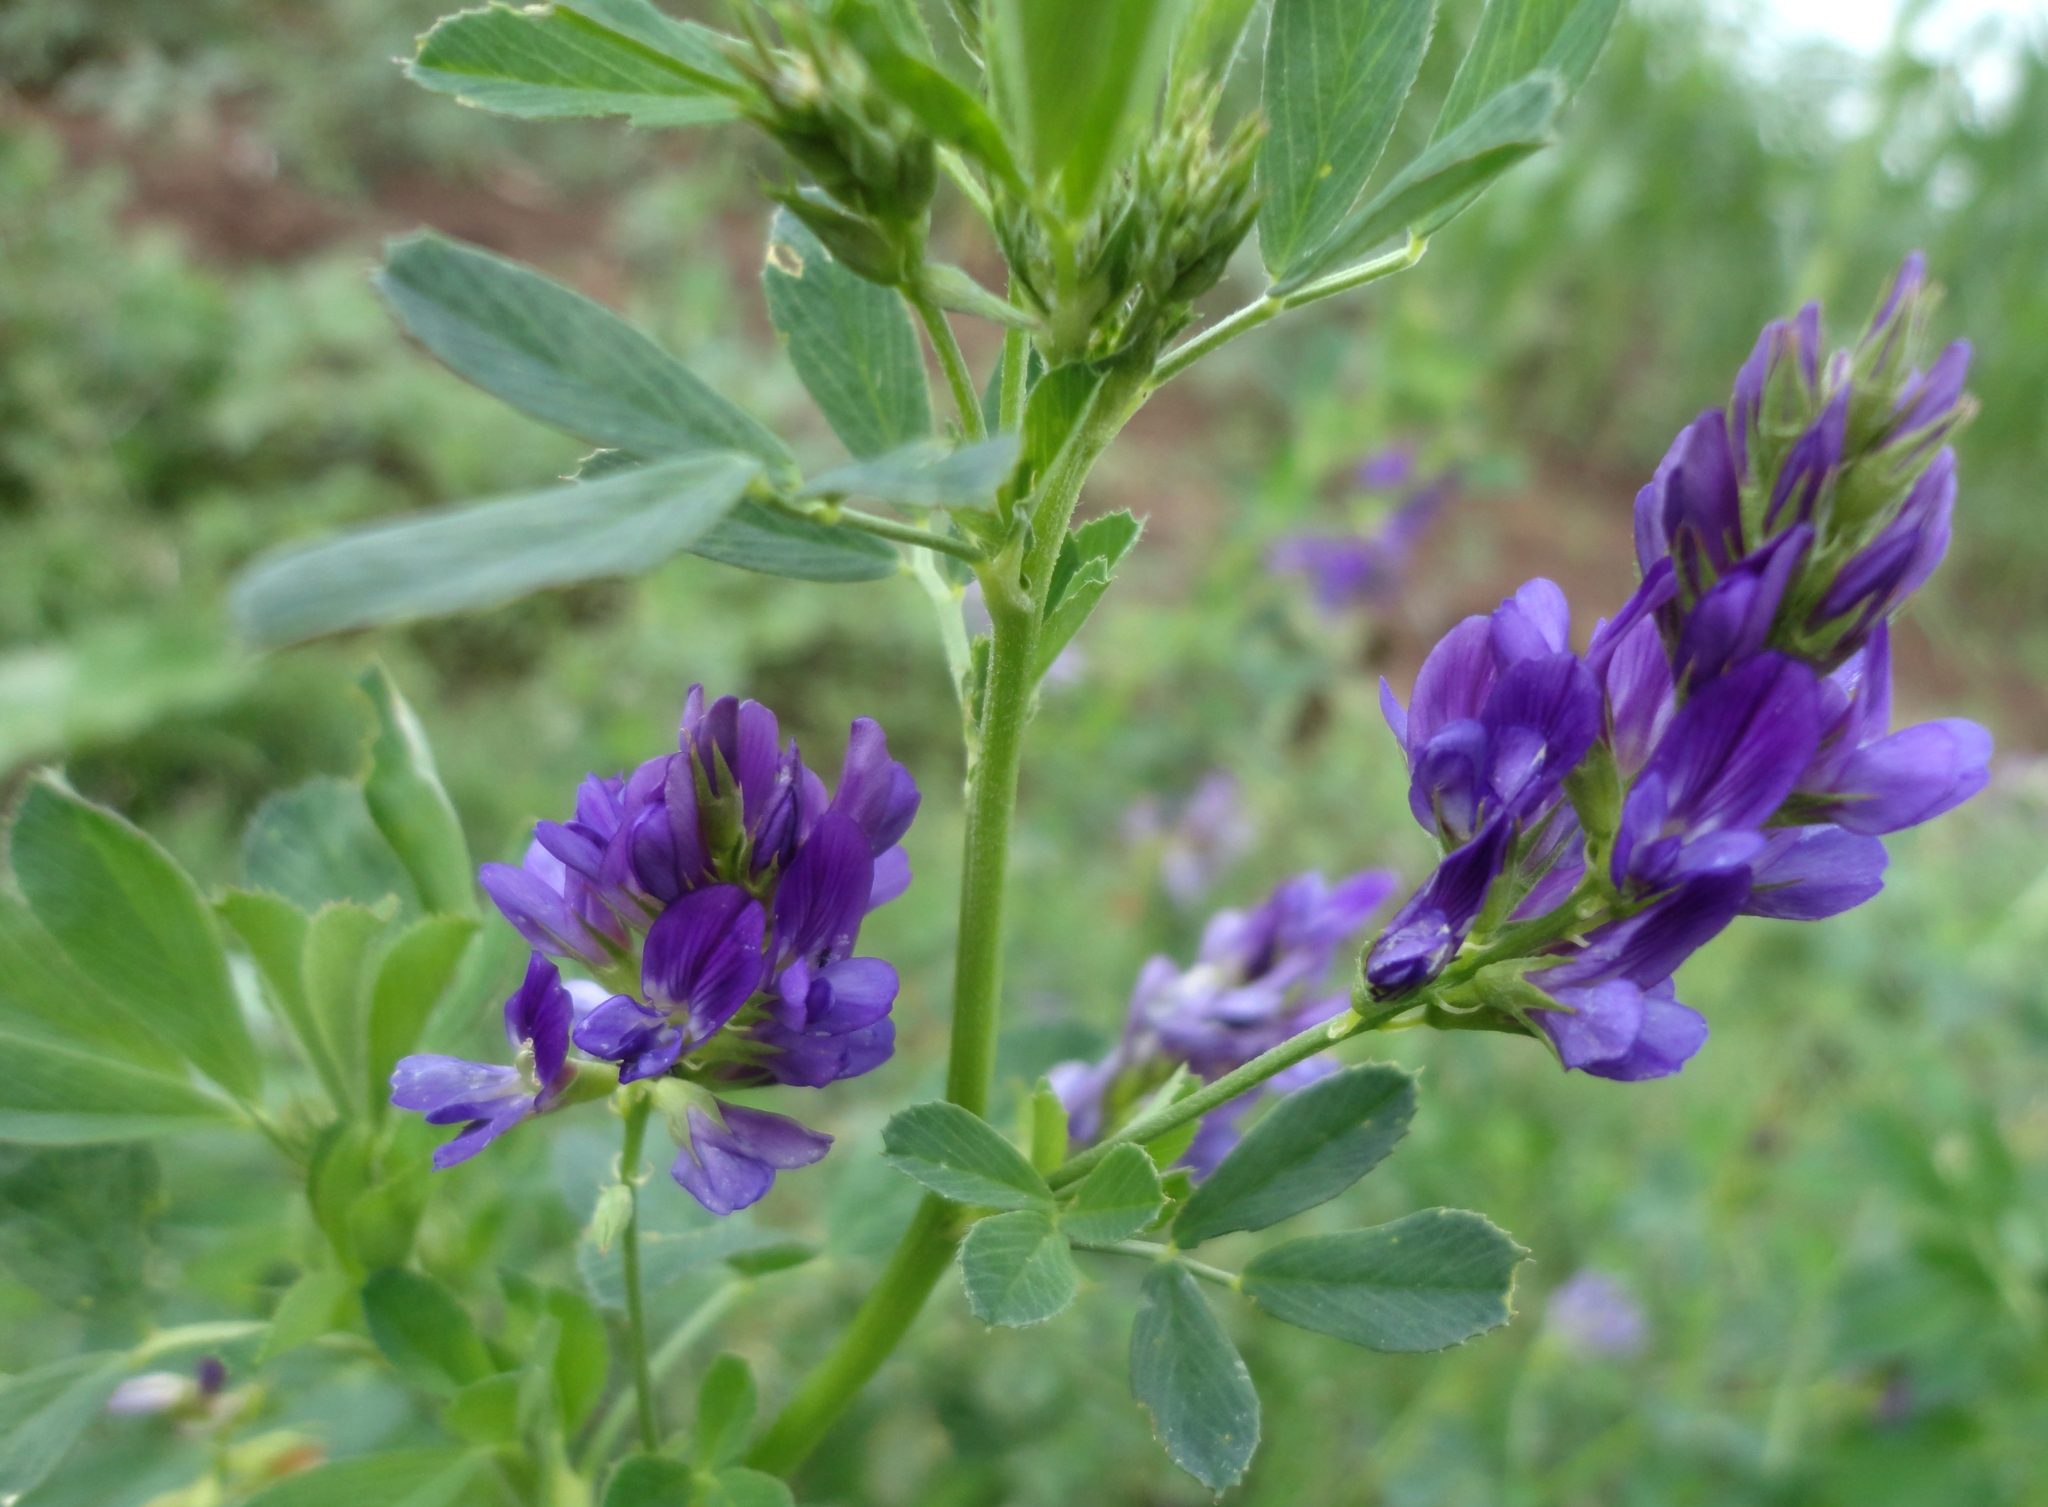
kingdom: Plantae
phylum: Tracheophyta
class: Magnoliopsida
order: Fabales
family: Fabaceae
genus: Medicago
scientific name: Medicago sativa
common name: Alfalfa
